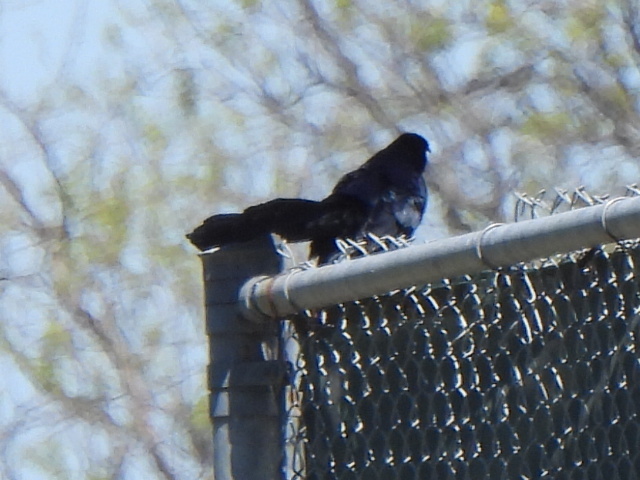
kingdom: Animalia
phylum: Chordata
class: Aves
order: Passeriformes
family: Icteridae
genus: Quiscalus
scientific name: Quiscalus mexicanus
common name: Great-tailed grackle
